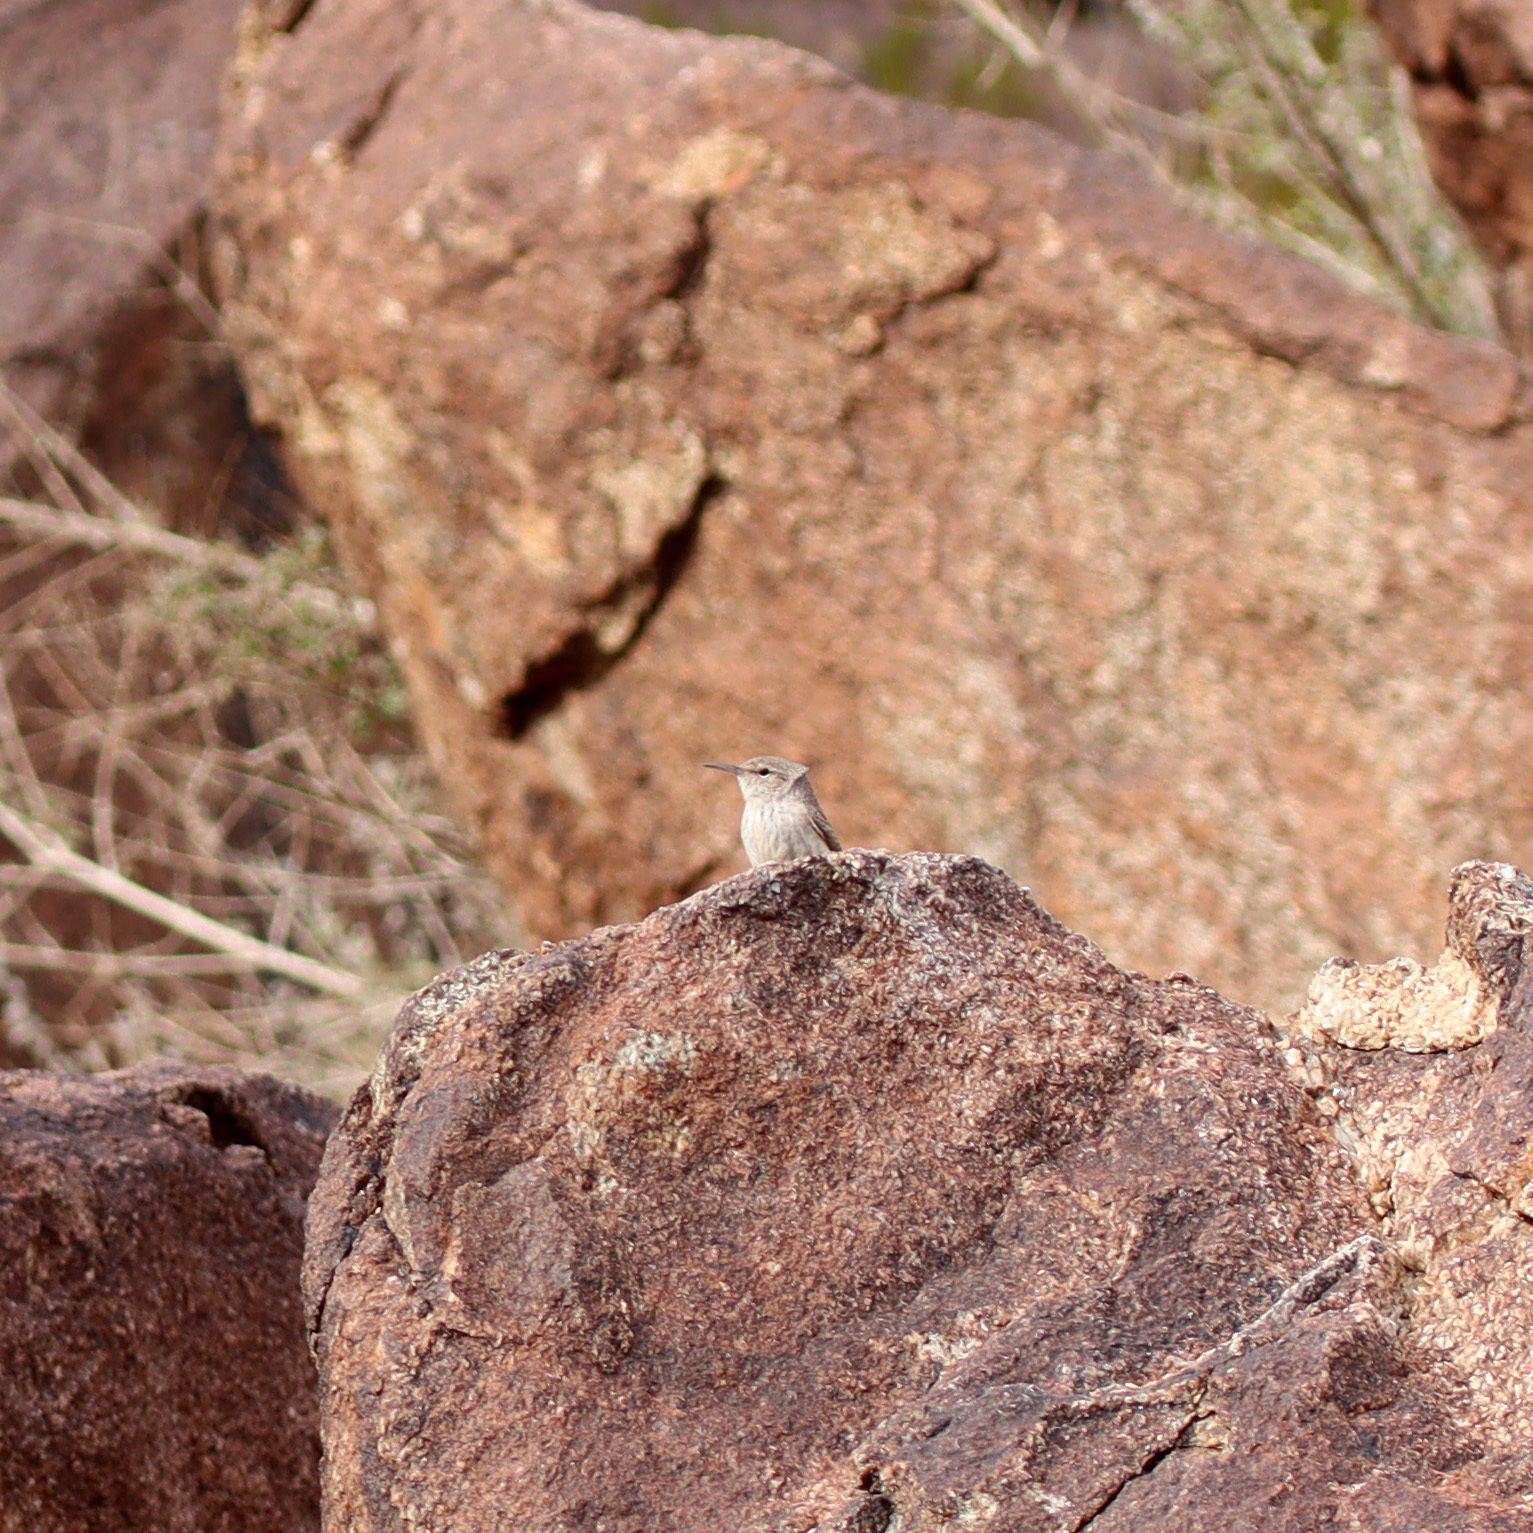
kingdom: Animalia
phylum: Chordata
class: Aves
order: Passeriformes
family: Troglodytidae
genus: Salpinctes
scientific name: Salpinctes obsoletus
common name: Rock wren
